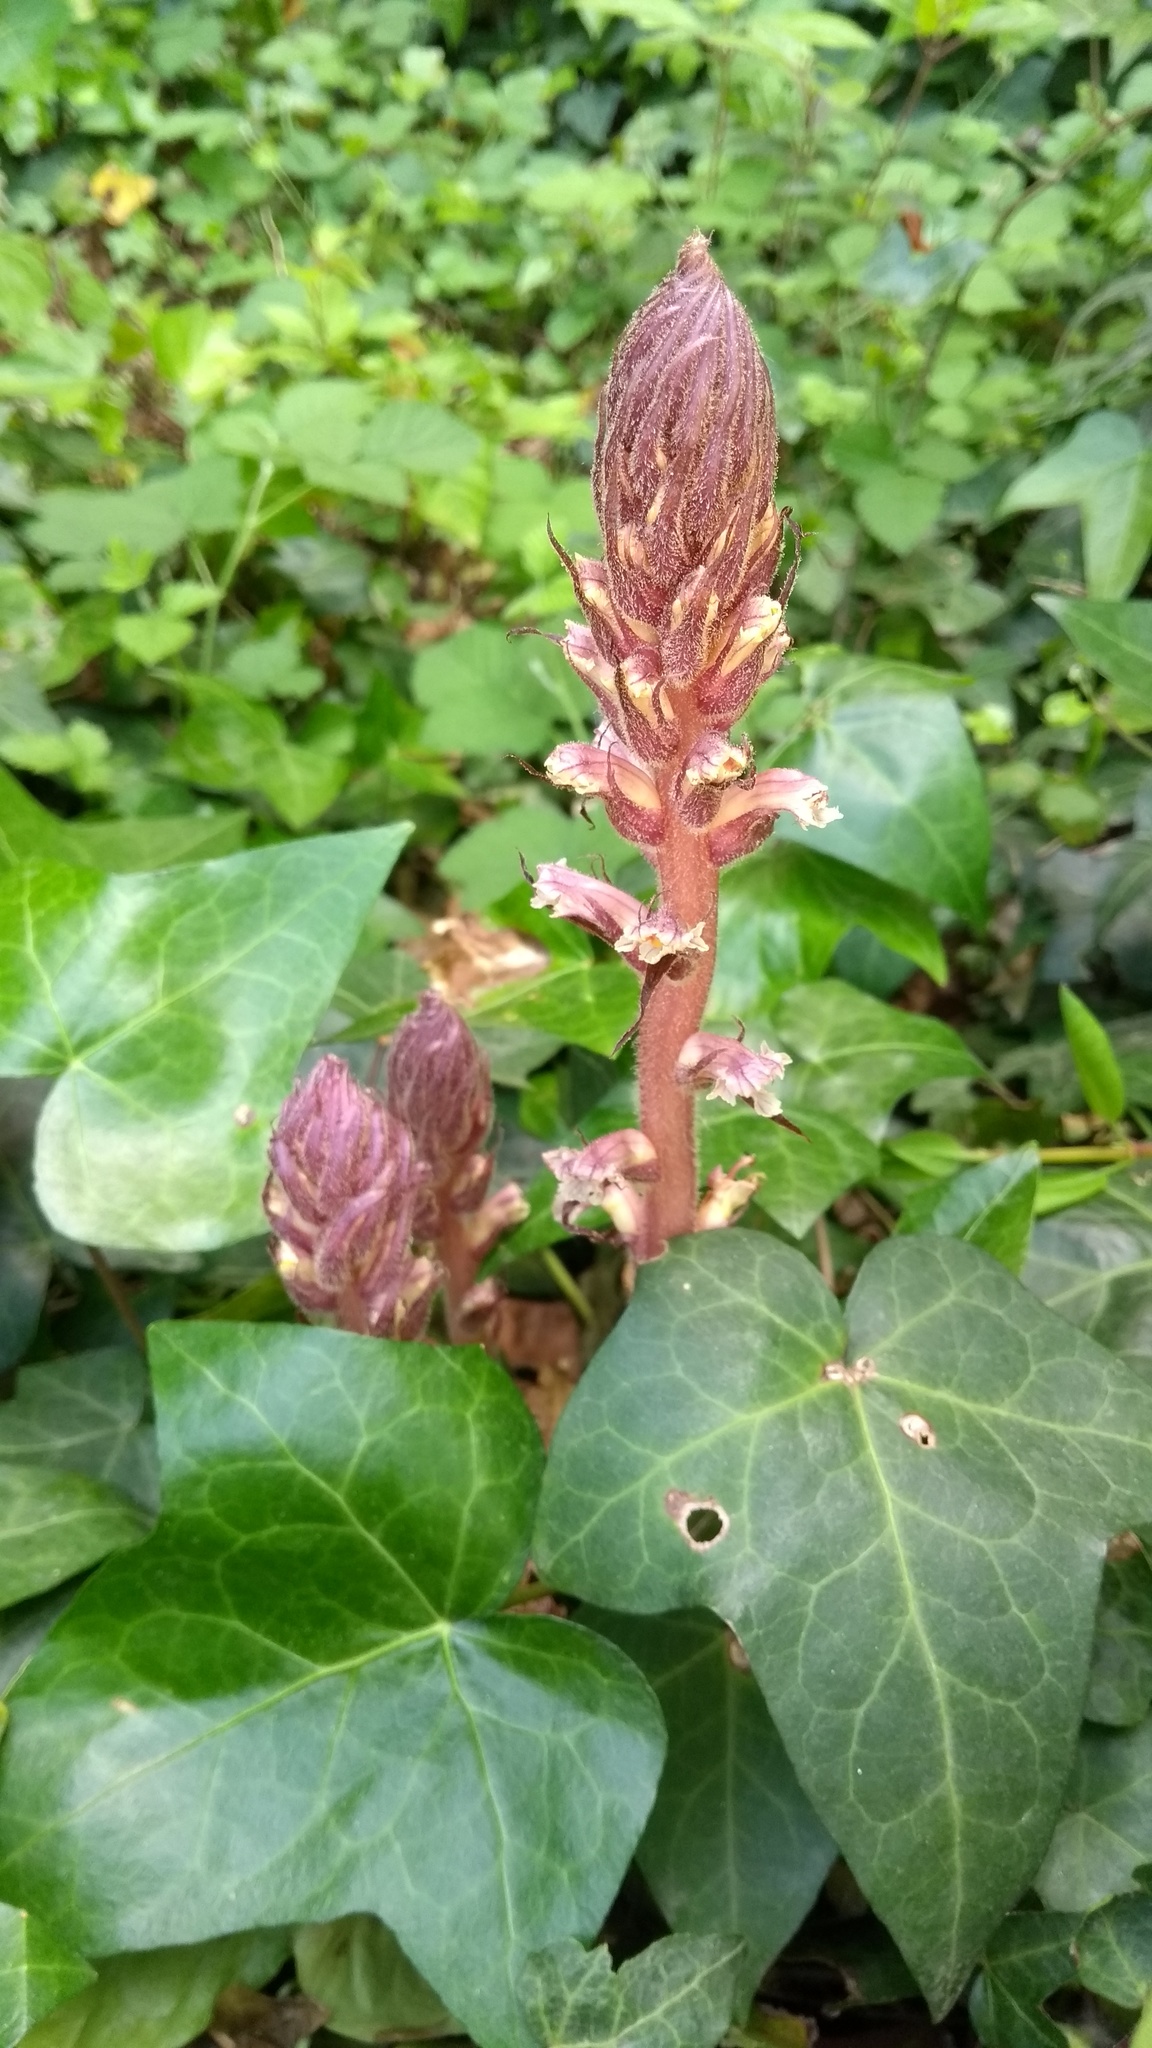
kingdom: Plantae
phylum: Tracheophyta
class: Magnoliopsida
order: Lamiales
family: Orobanchaceae
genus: Orobanche
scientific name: Orobanche hederae
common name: Ivy broomrape
